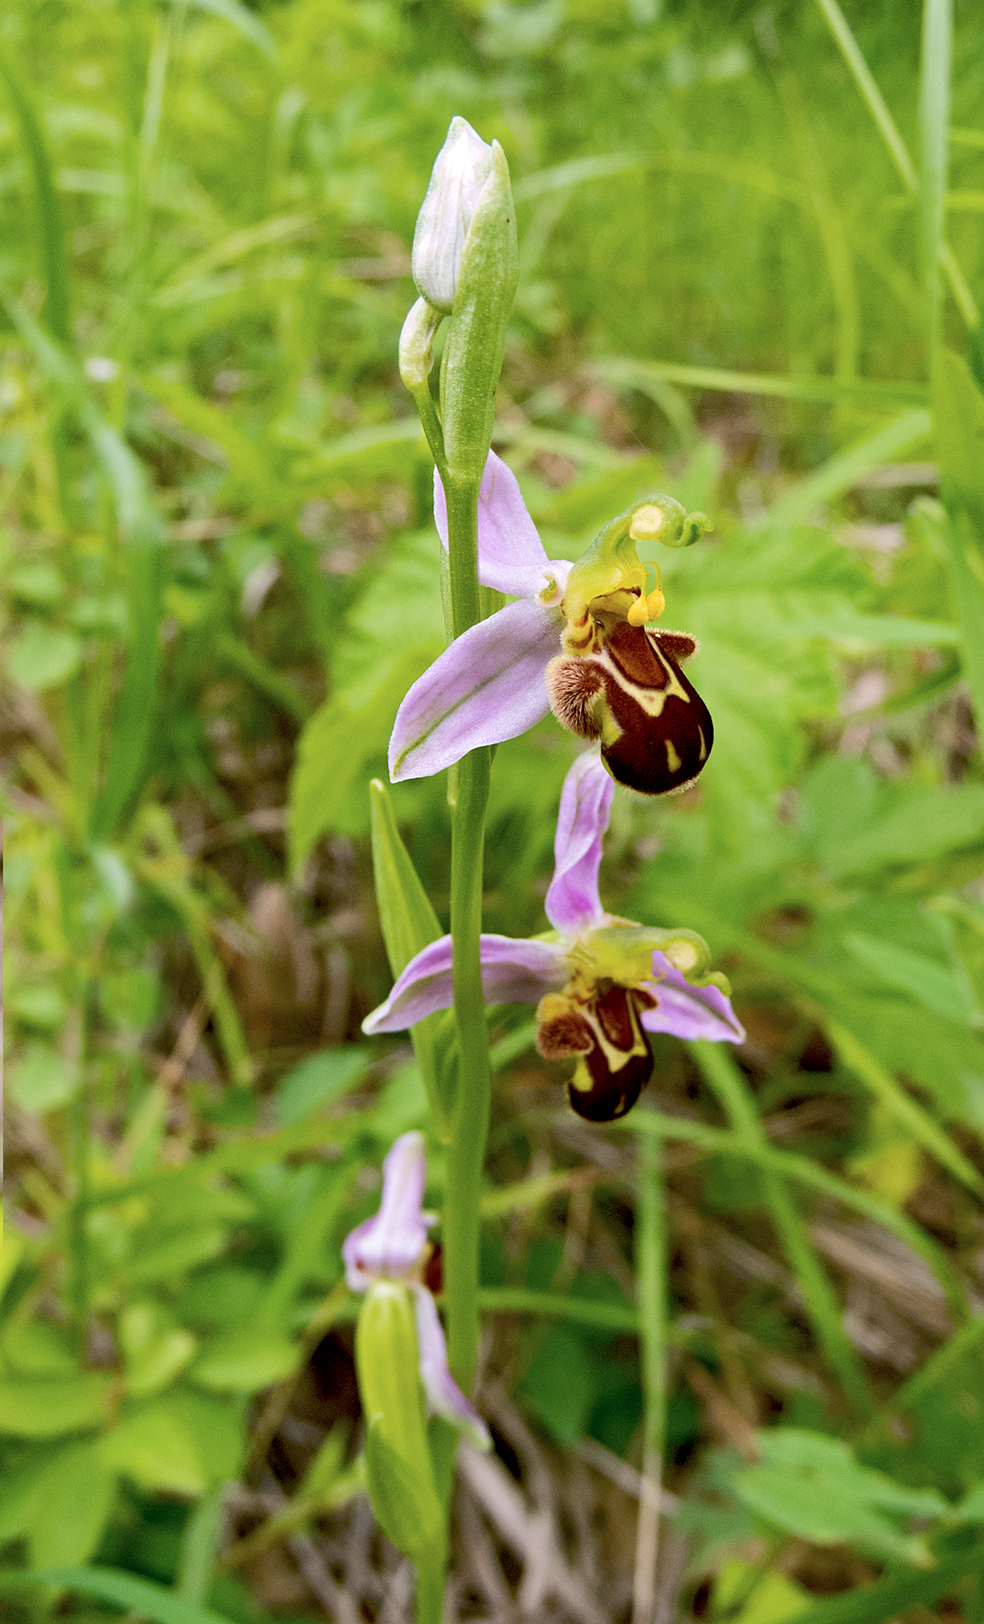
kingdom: Plantae
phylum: Tracheophyta
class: Liliopsida
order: Asparagales
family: Orchidaceae
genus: Ophrys
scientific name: Ophrys apifera
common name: Bee orchid
